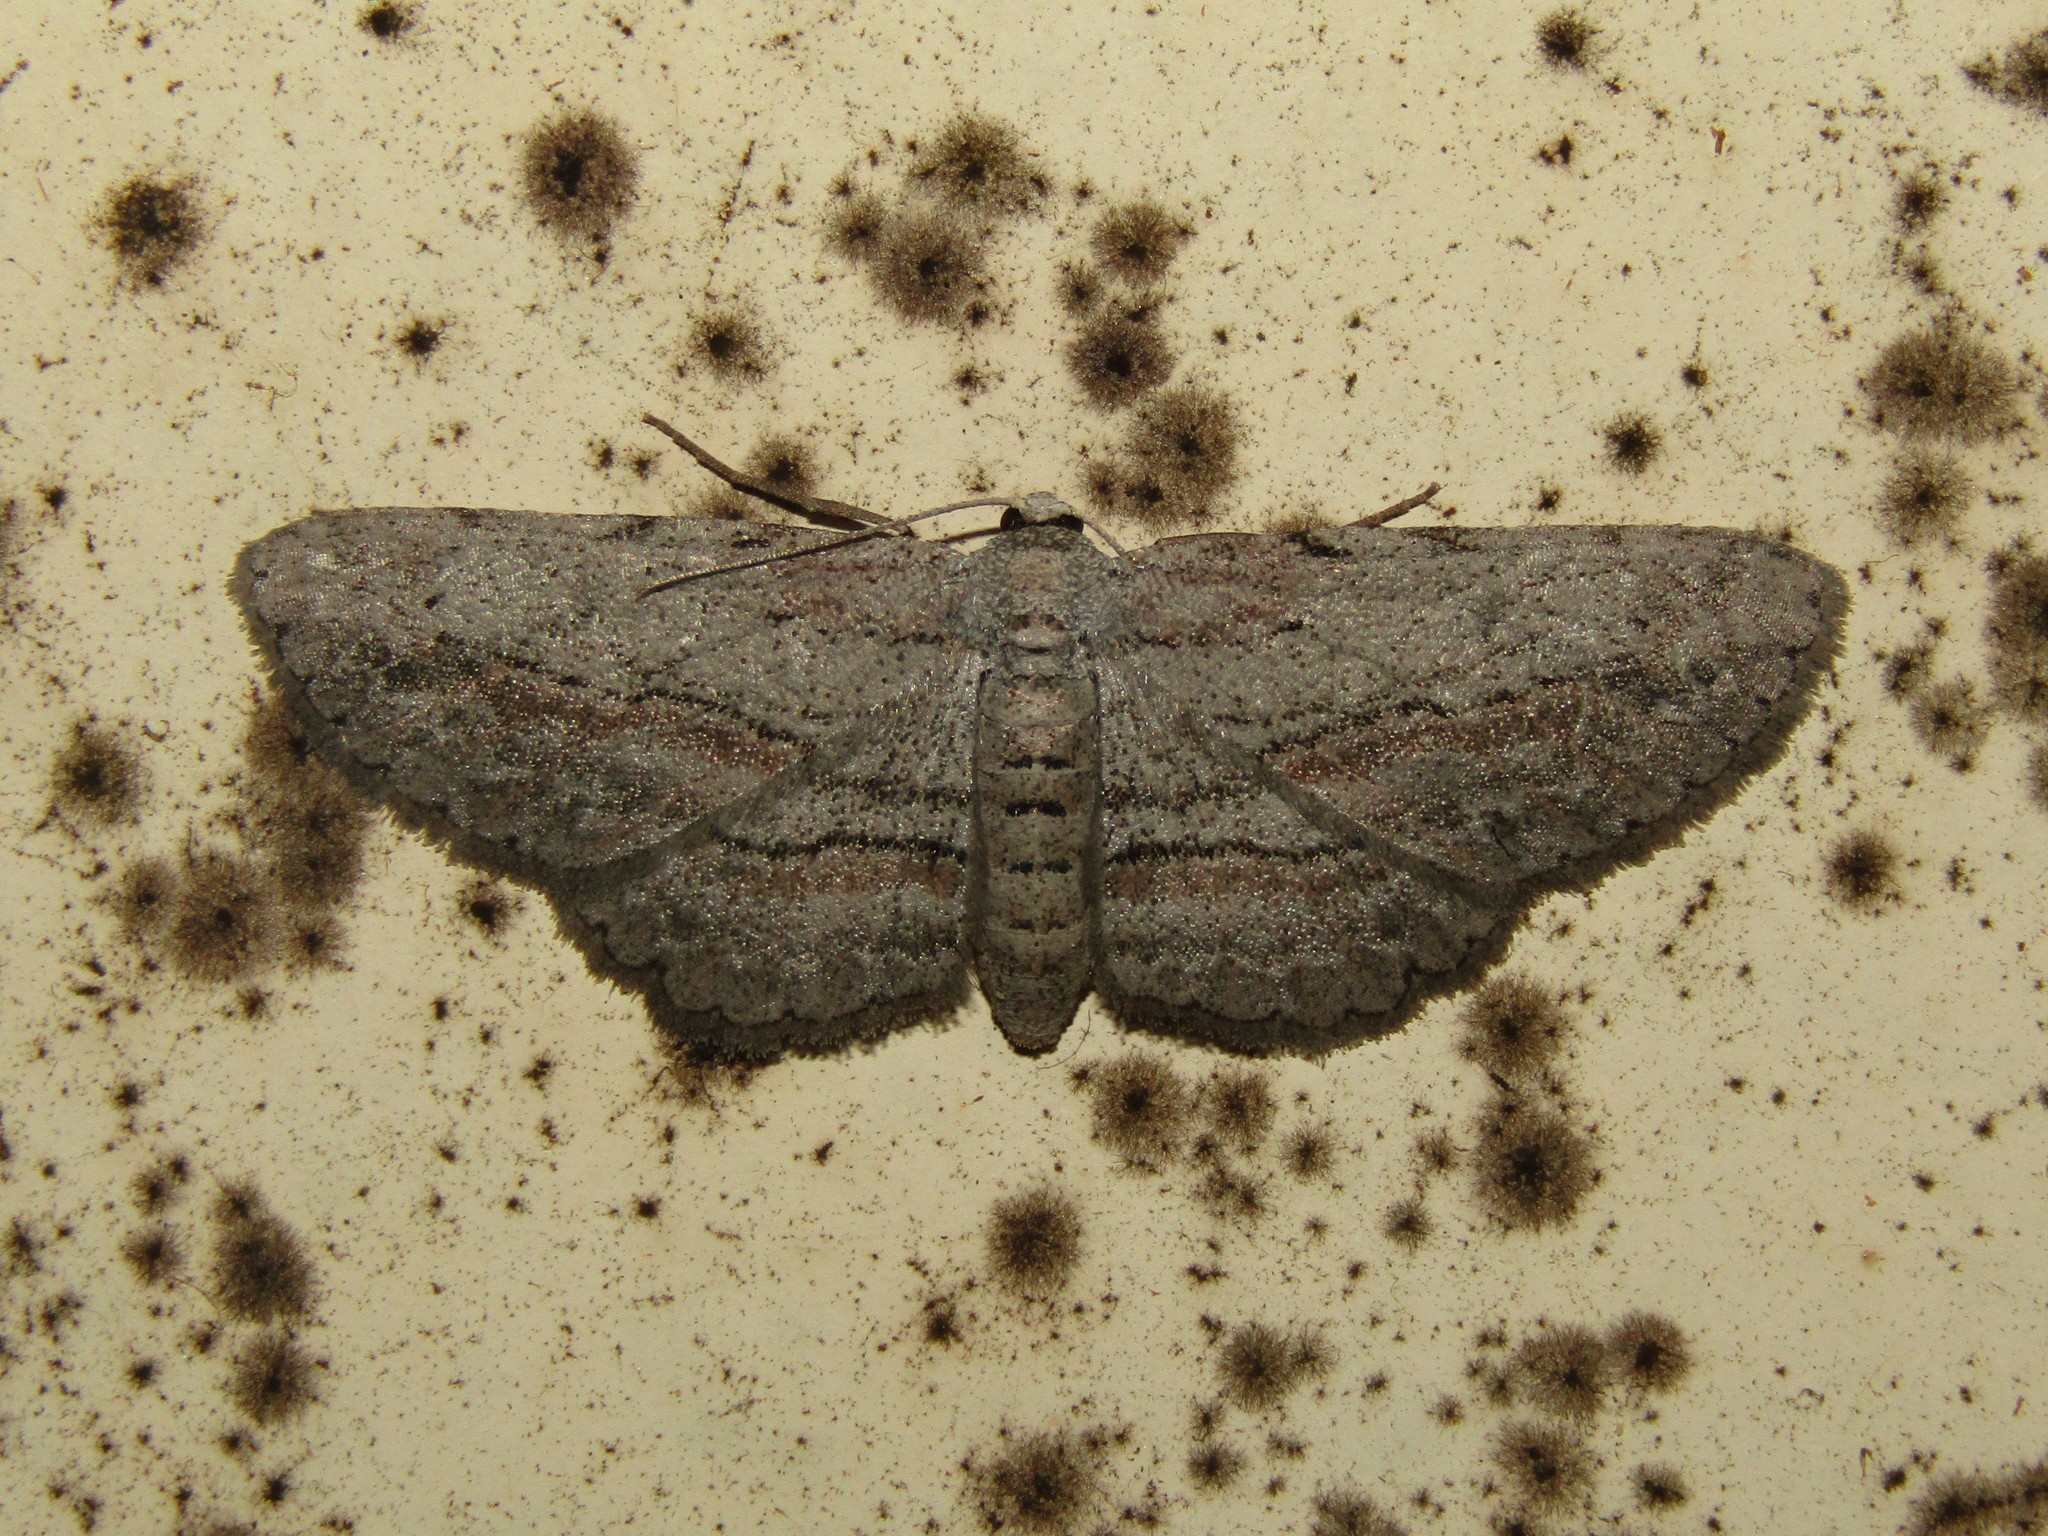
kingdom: Animalia
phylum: Arthropoda
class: Insecta
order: Lepidoptera
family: Geometridae
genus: Glena
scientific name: Glena plumosaria
